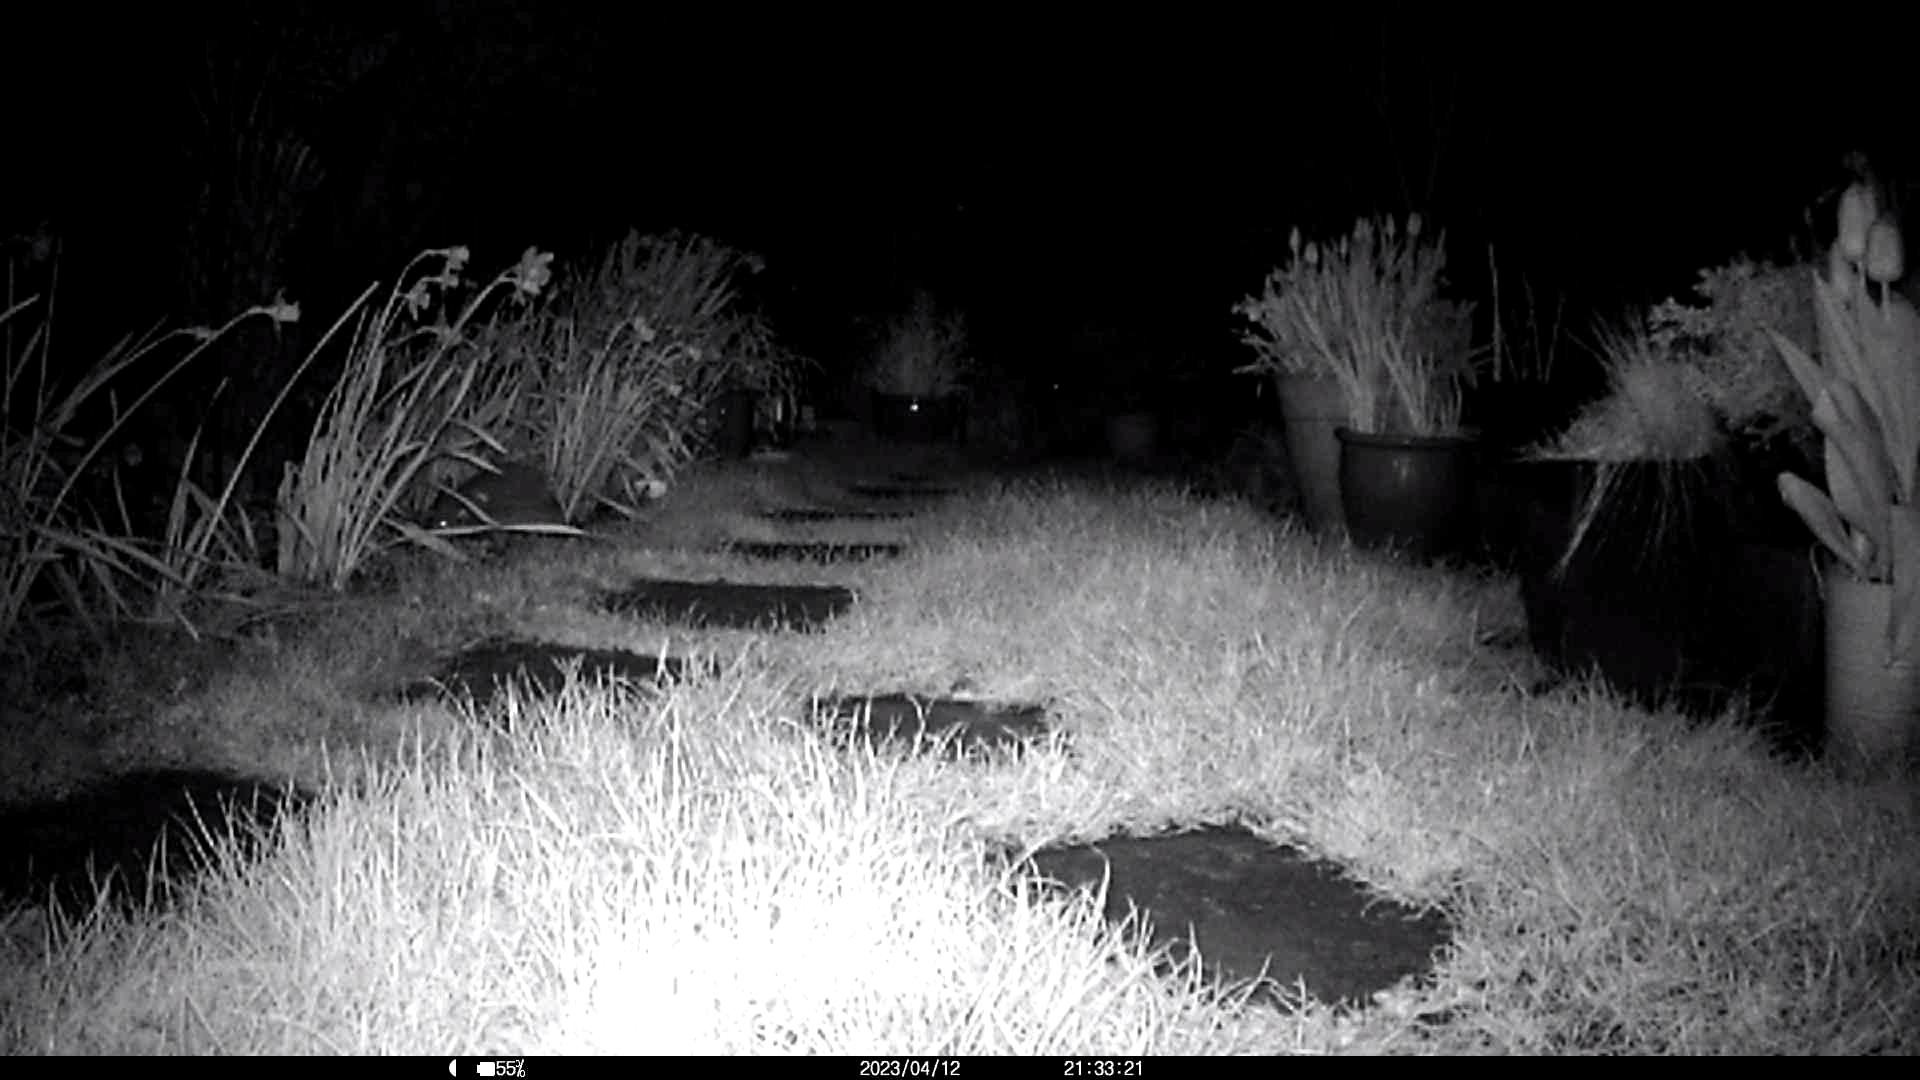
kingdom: Animalia
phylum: Chordata
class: Mammalia
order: Erinaceomorpha
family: Erinaceidae
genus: Erinaceus
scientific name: Erinaceus europaeus
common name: West european hedgehog
